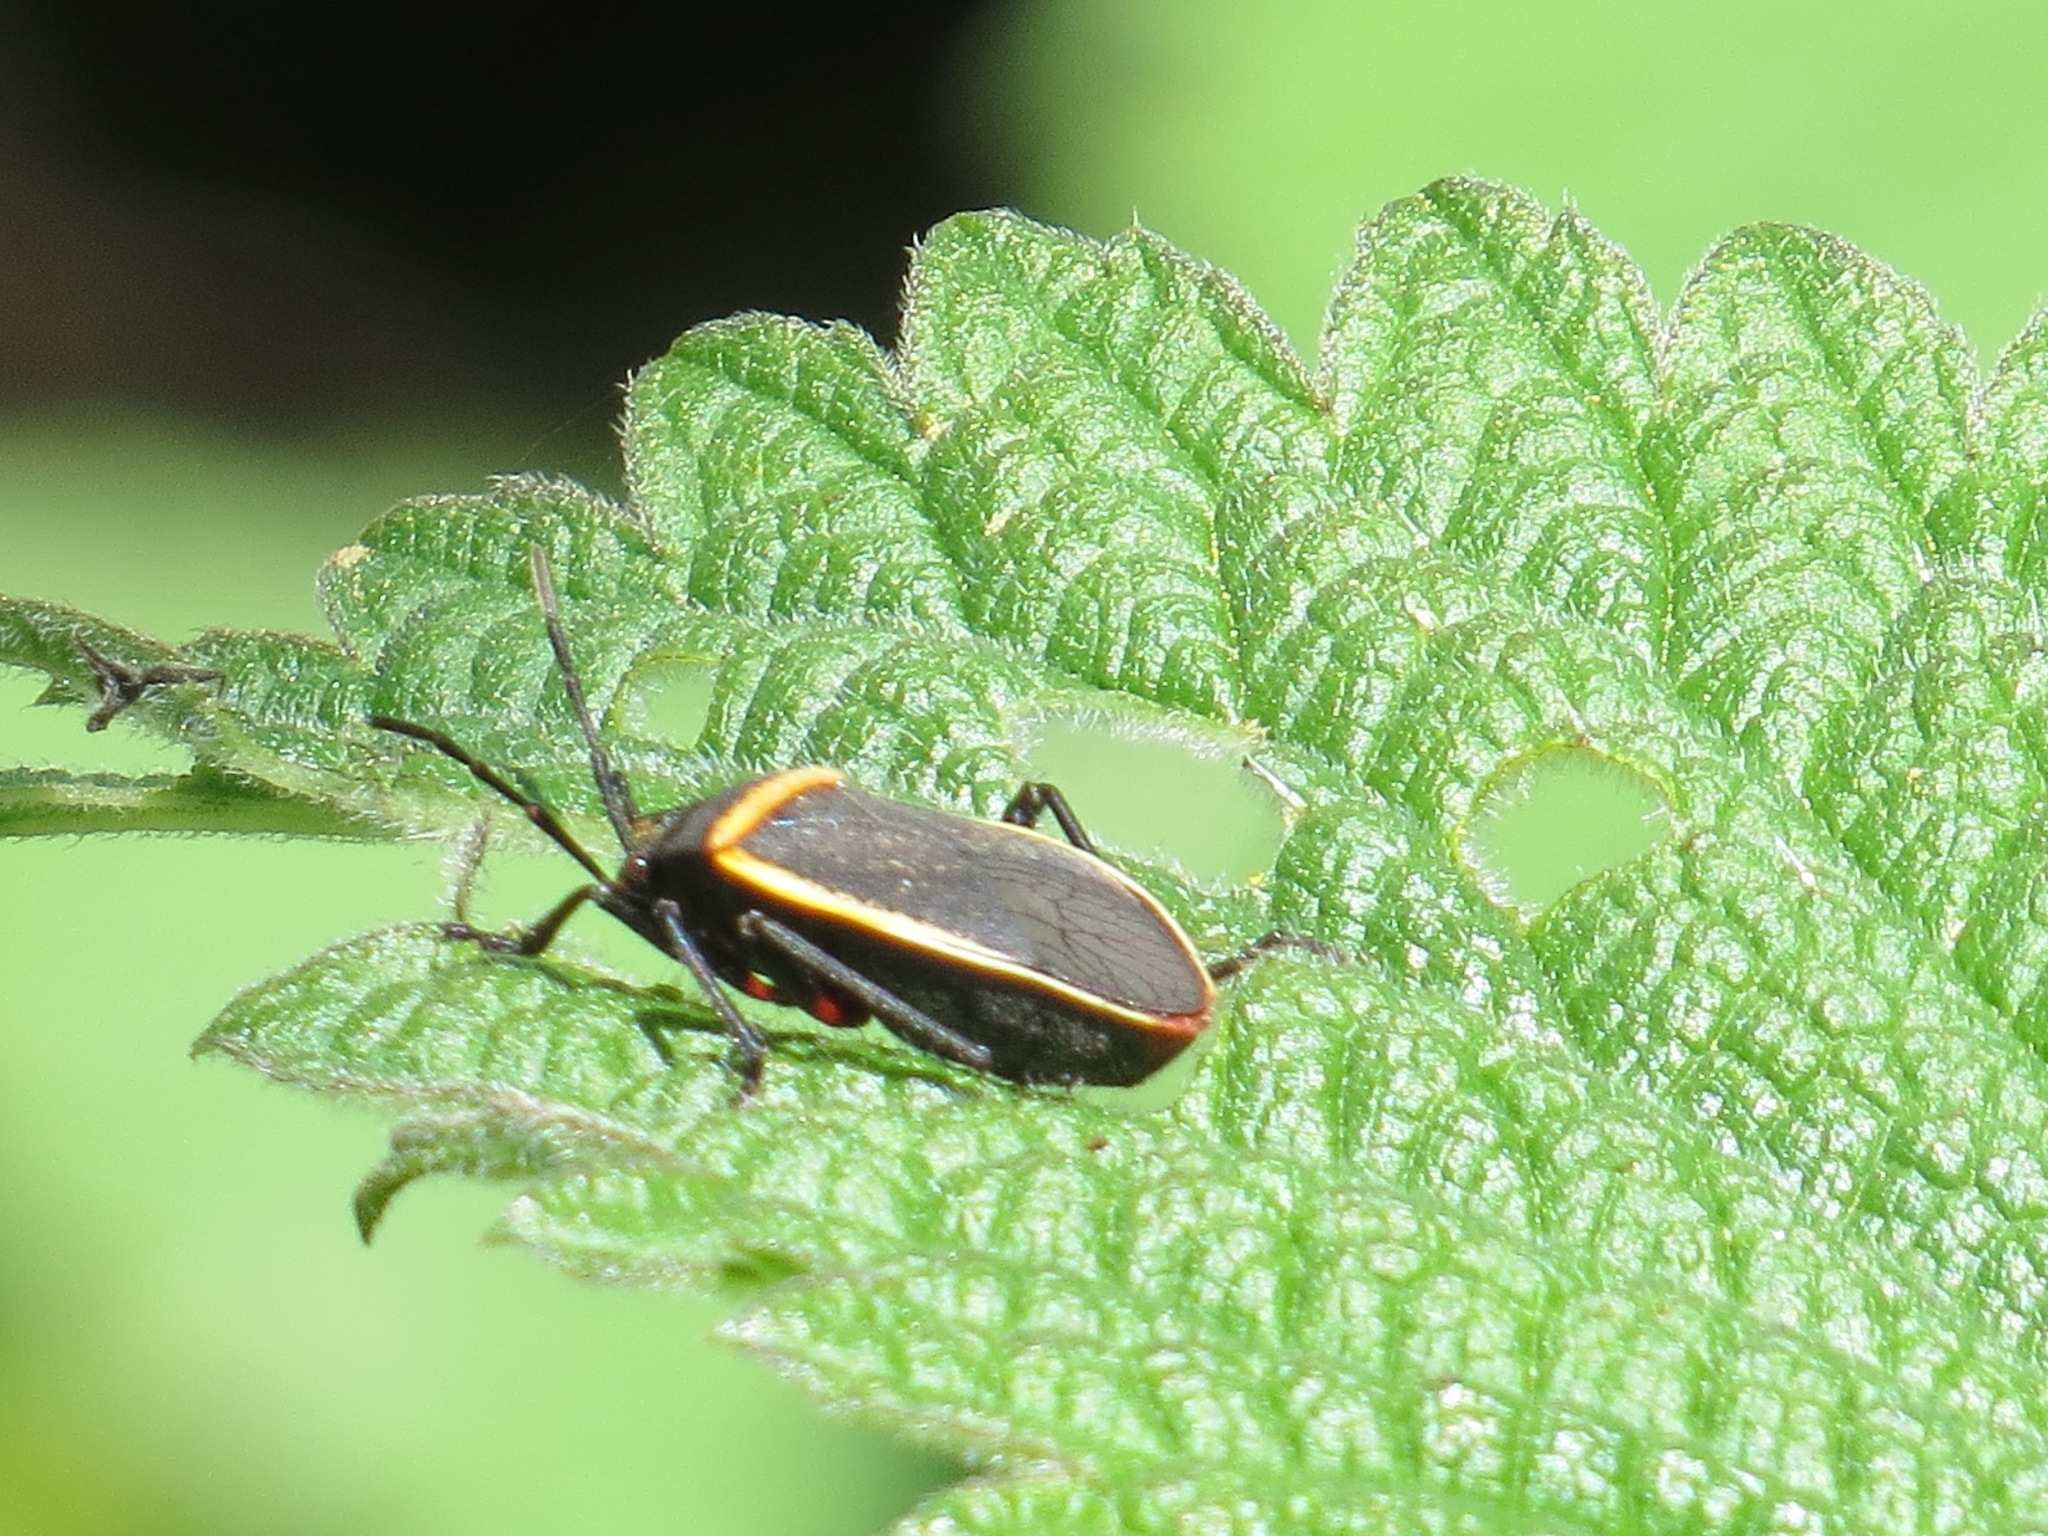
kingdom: Animalia
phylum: Arthropoda
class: Insecta
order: Hemiptera
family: Largidae
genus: Largus
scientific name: Largus californicus
